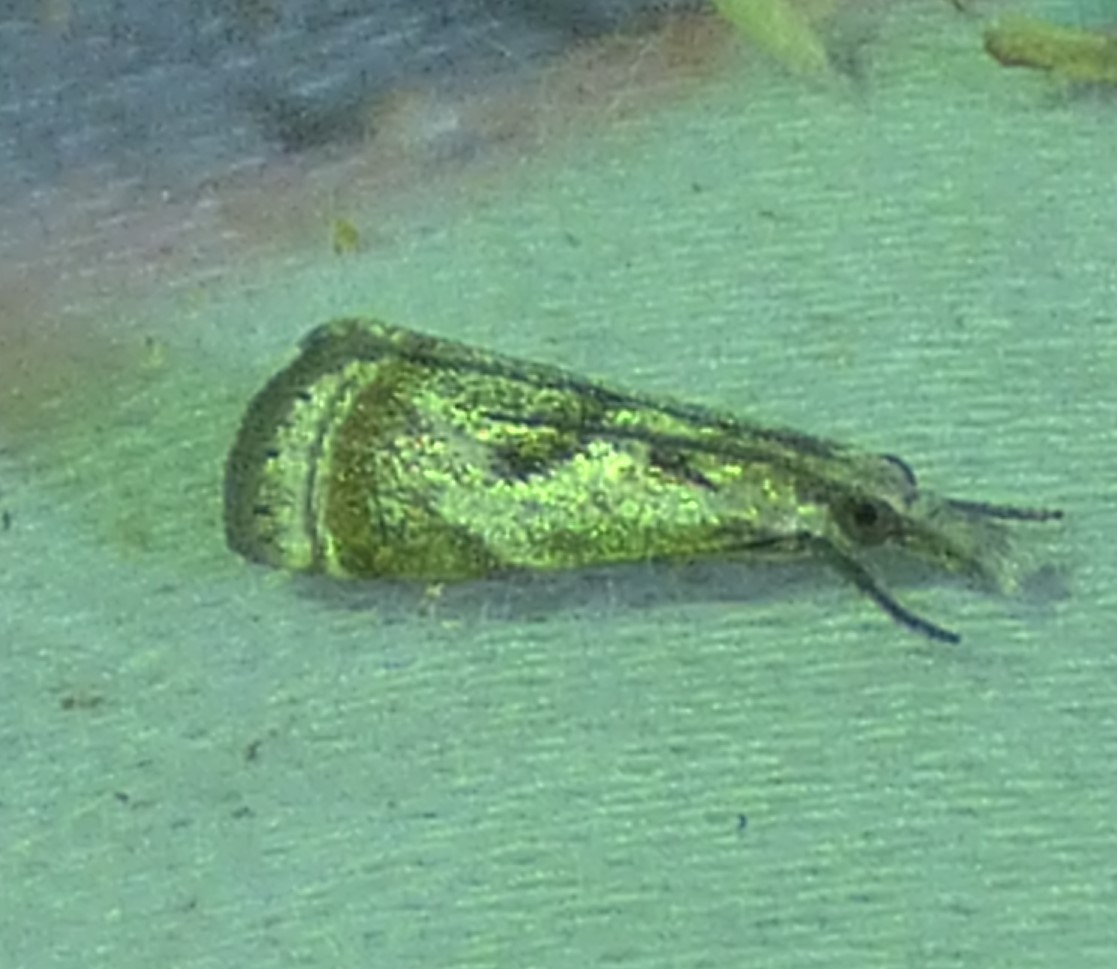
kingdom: Animalia
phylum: Arthropoda
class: Insecta
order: Lepidoptera
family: Crambidae
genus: Microcrambus
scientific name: Microcrambus elegans
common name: Elegant grass-veneer
